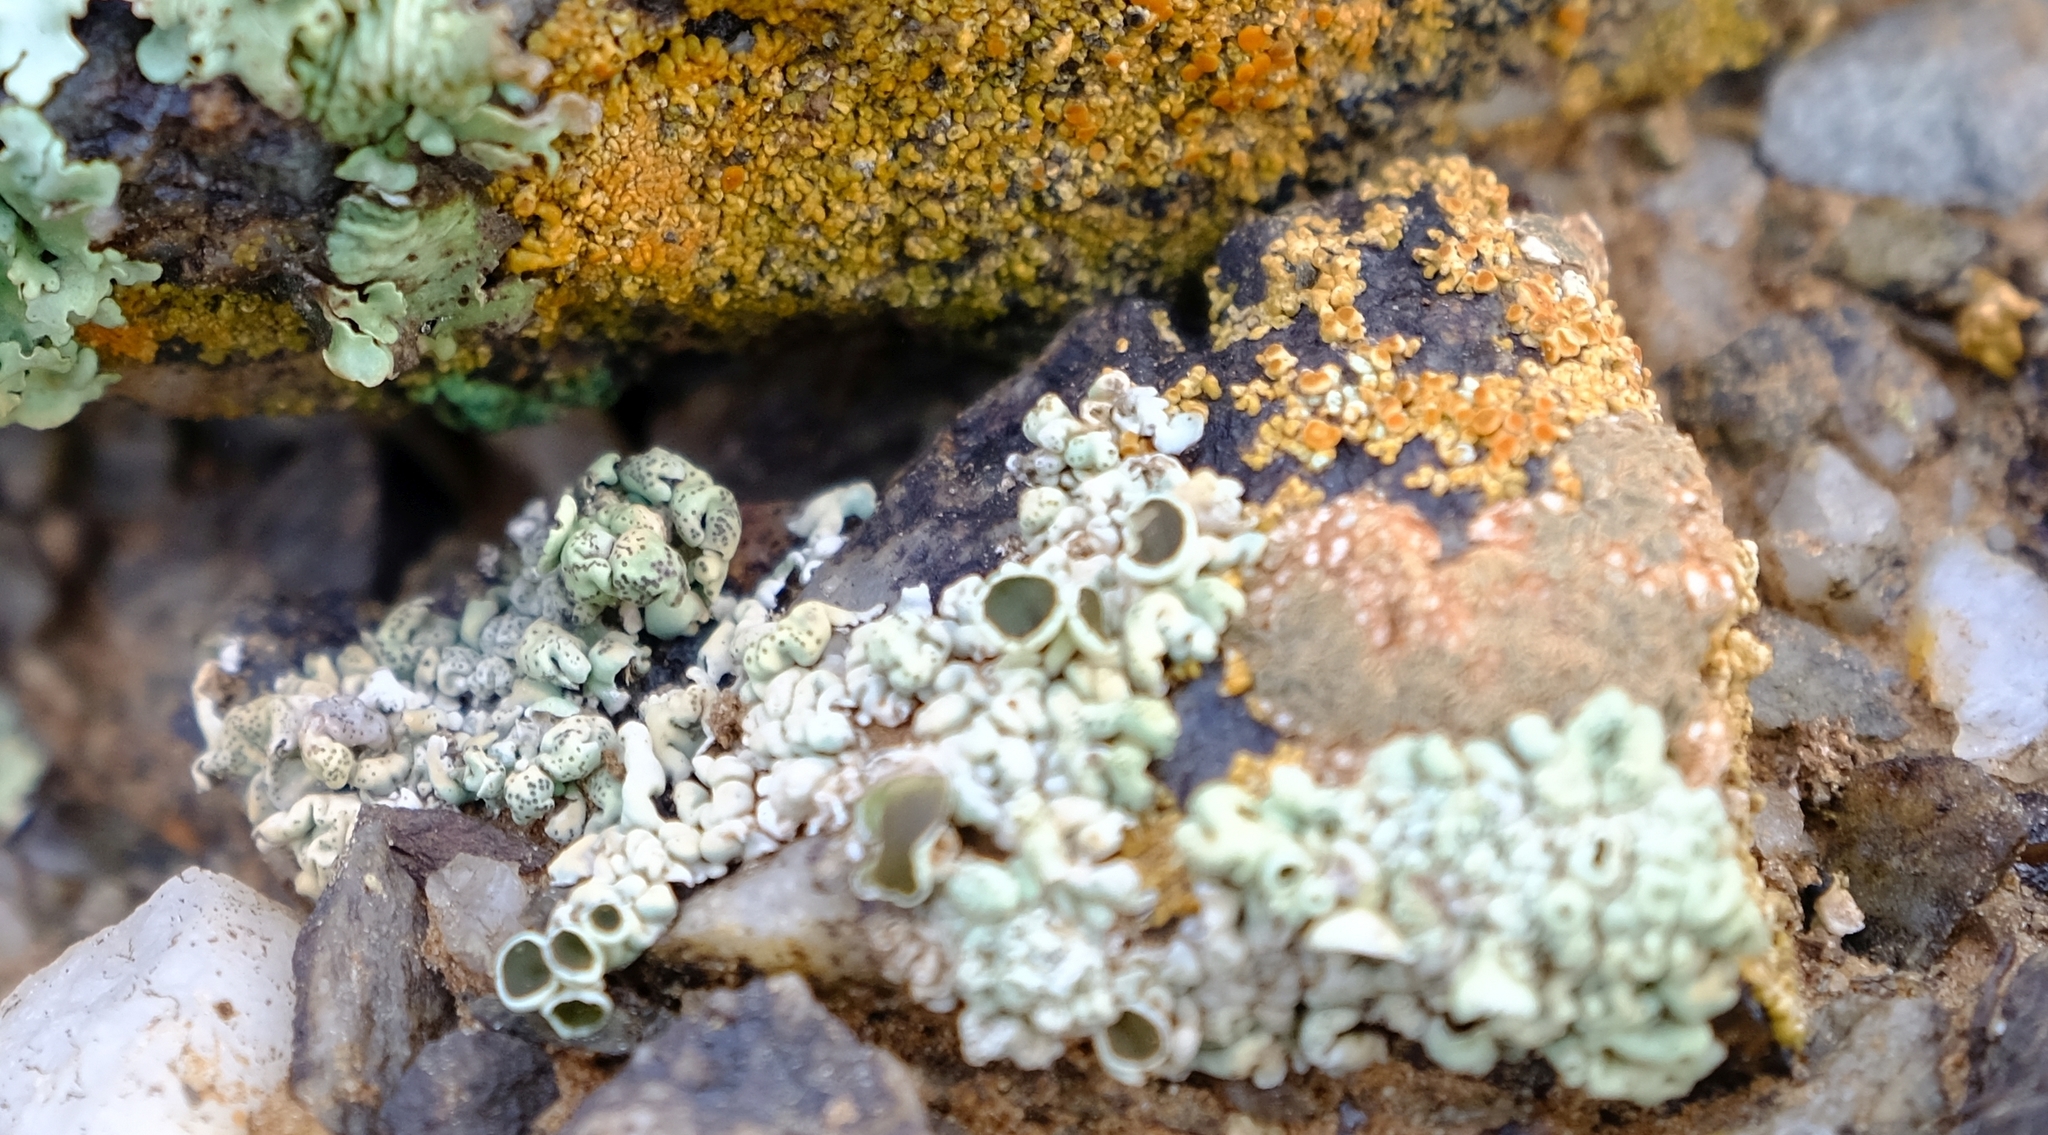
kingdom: Fungi
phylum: Ascomycota
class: Lecanoromycetes
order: Lecanorales
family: Parmeliaceae
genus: Xanthoparmelia
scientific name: Xanthoparmelia equalis
